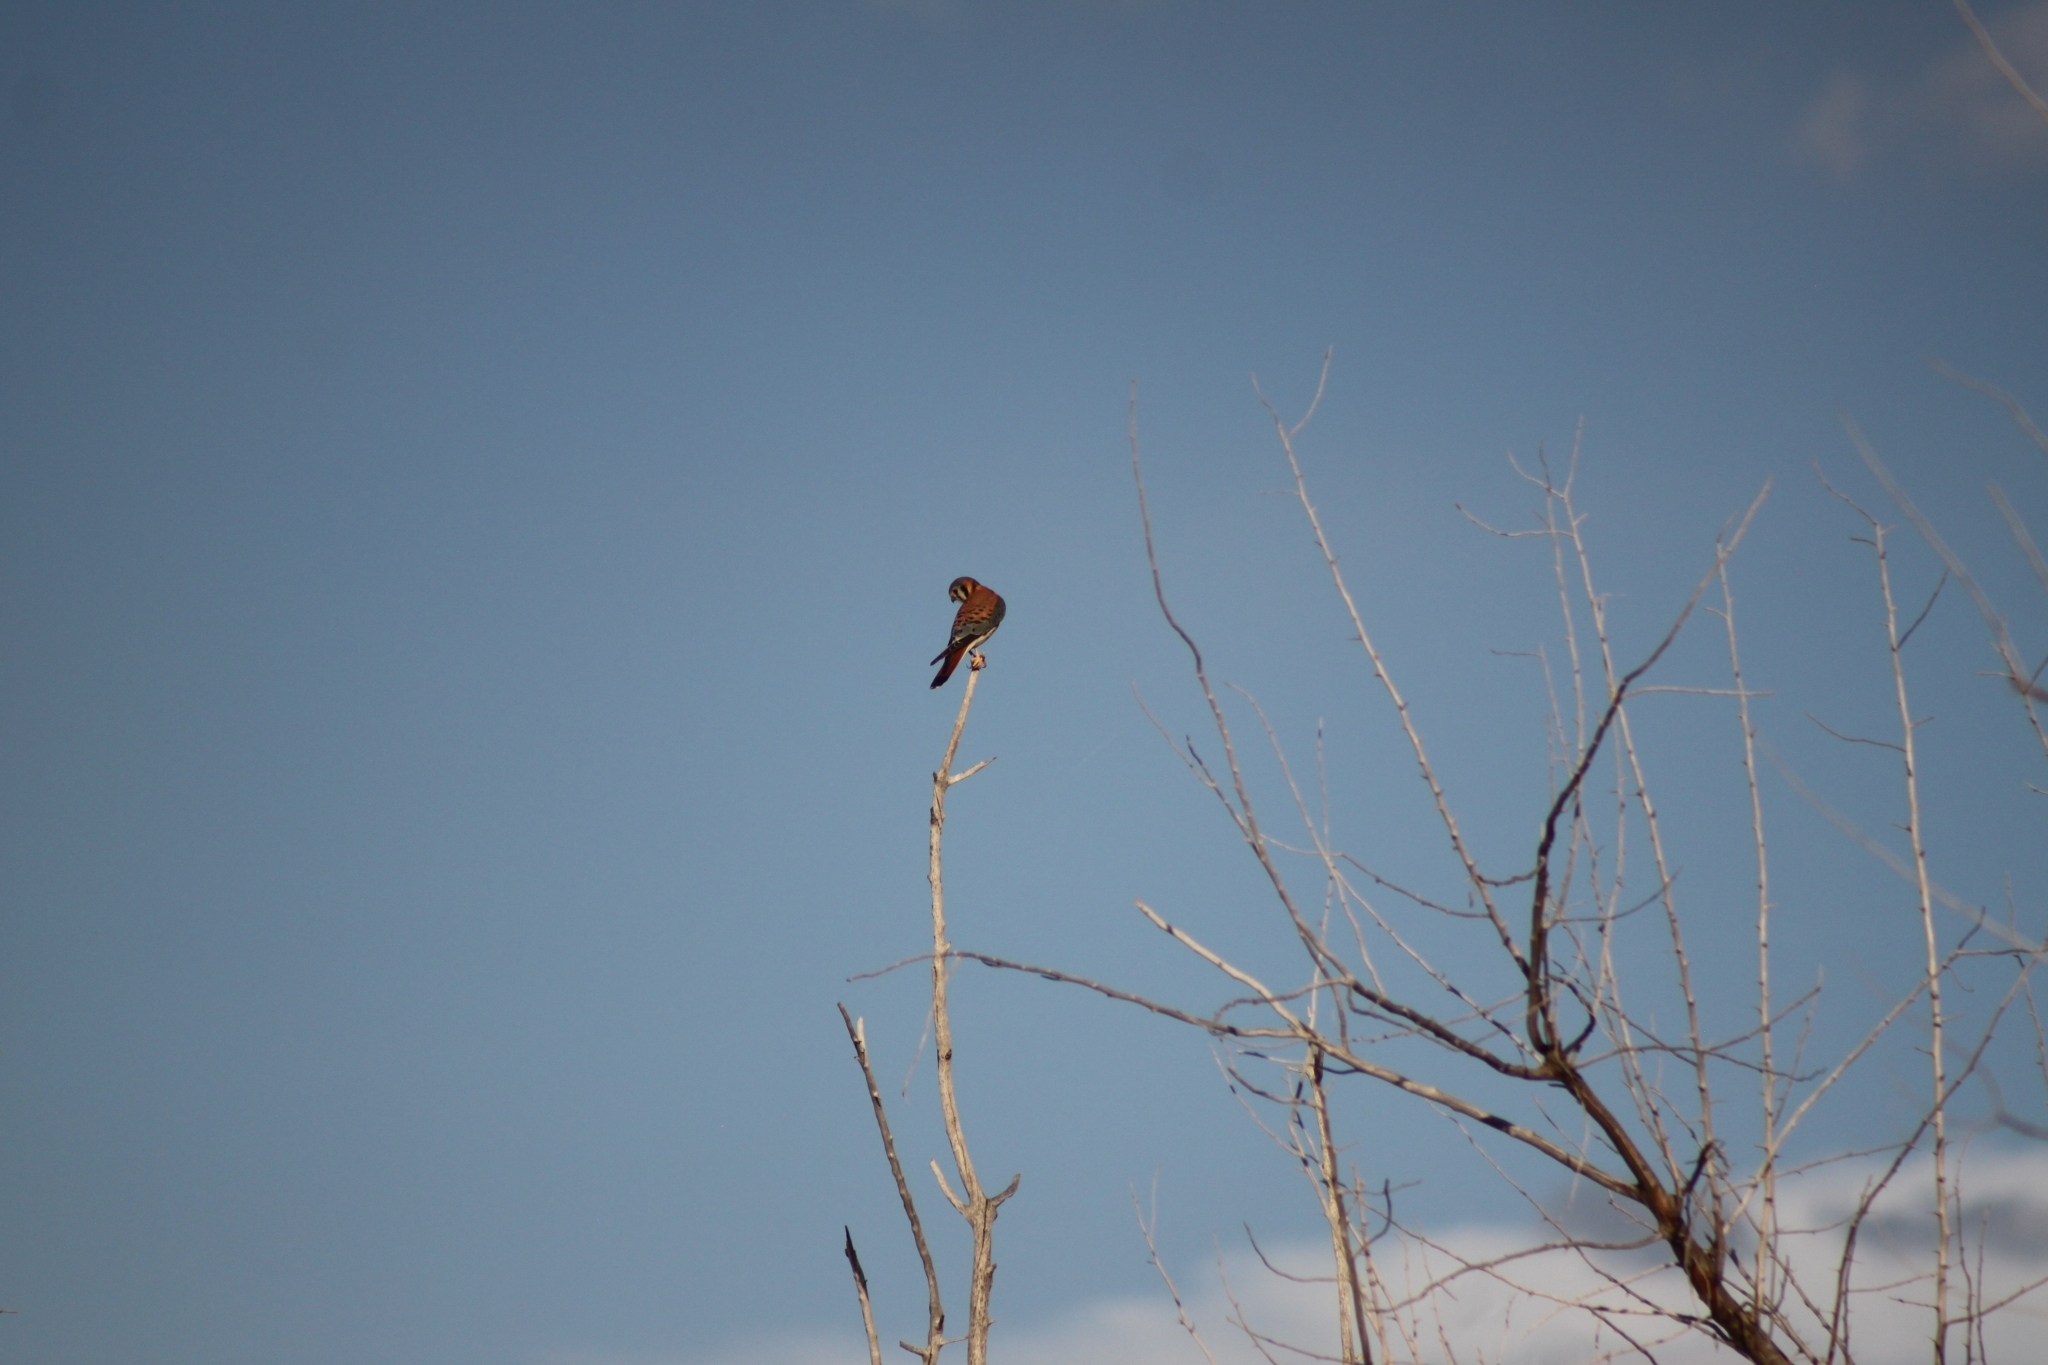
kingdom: Animalia
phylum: Chordata
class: Aves
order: Falconiformes
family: Falconidae
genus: Falco
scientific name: Falco sparverius
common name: American kestrel
